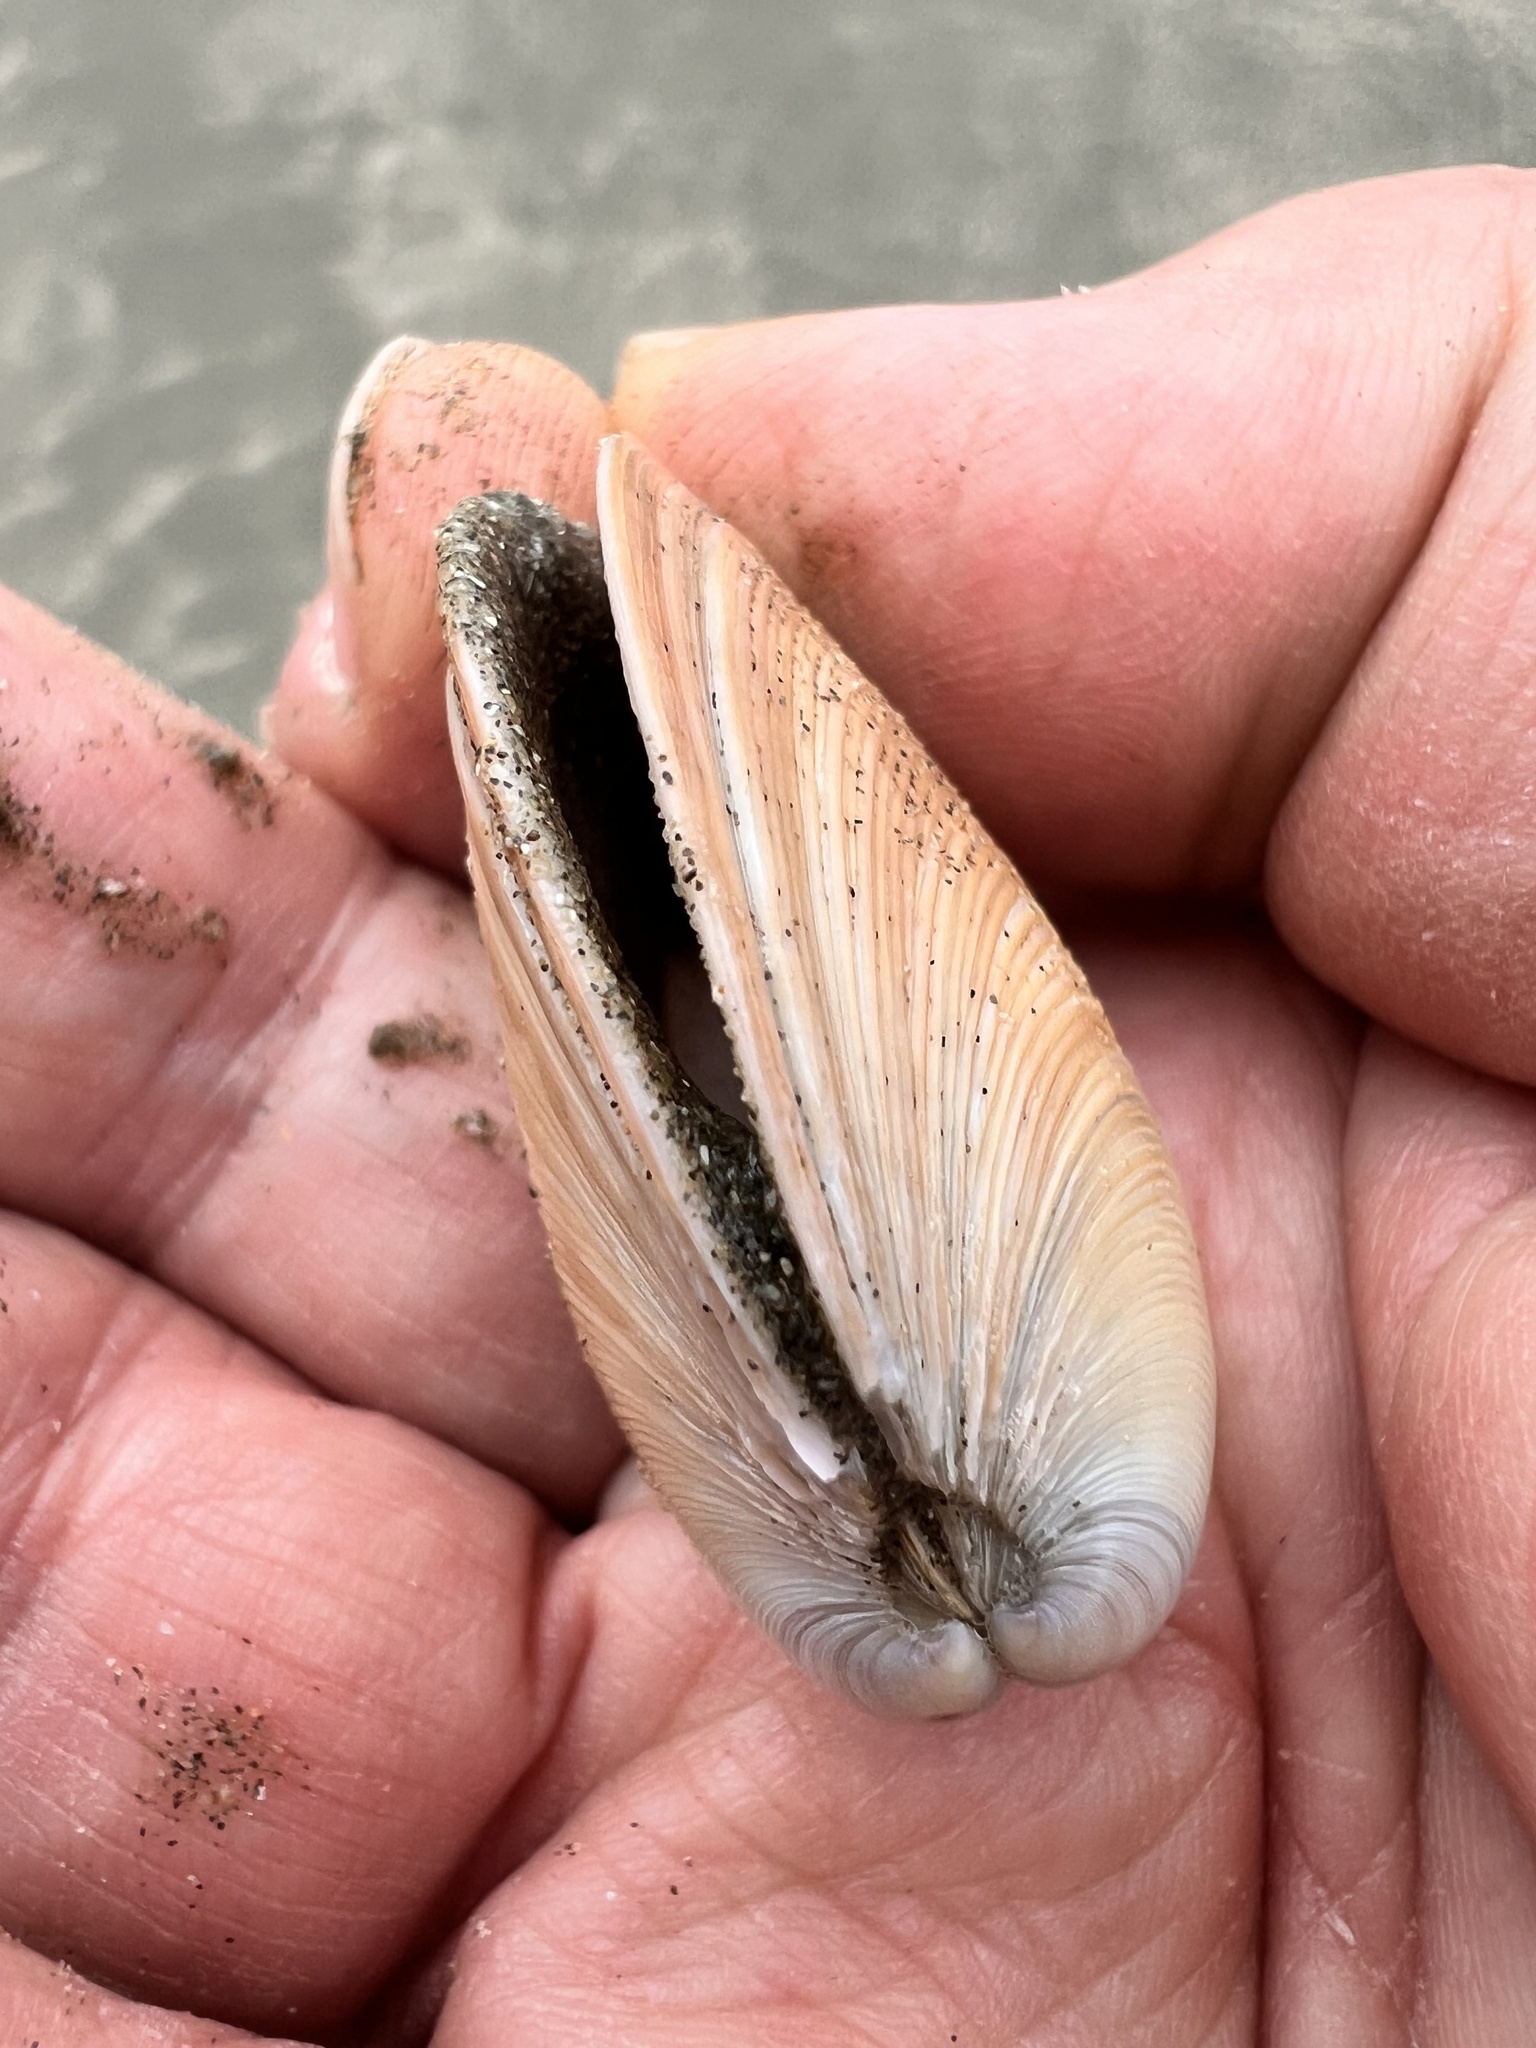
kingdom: Animalia
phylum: Mollusca
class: Bivalvia
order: Venerida
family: Veneridae
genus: Dosinia
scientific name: Dosinia anus
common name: Old-woman dosinia
